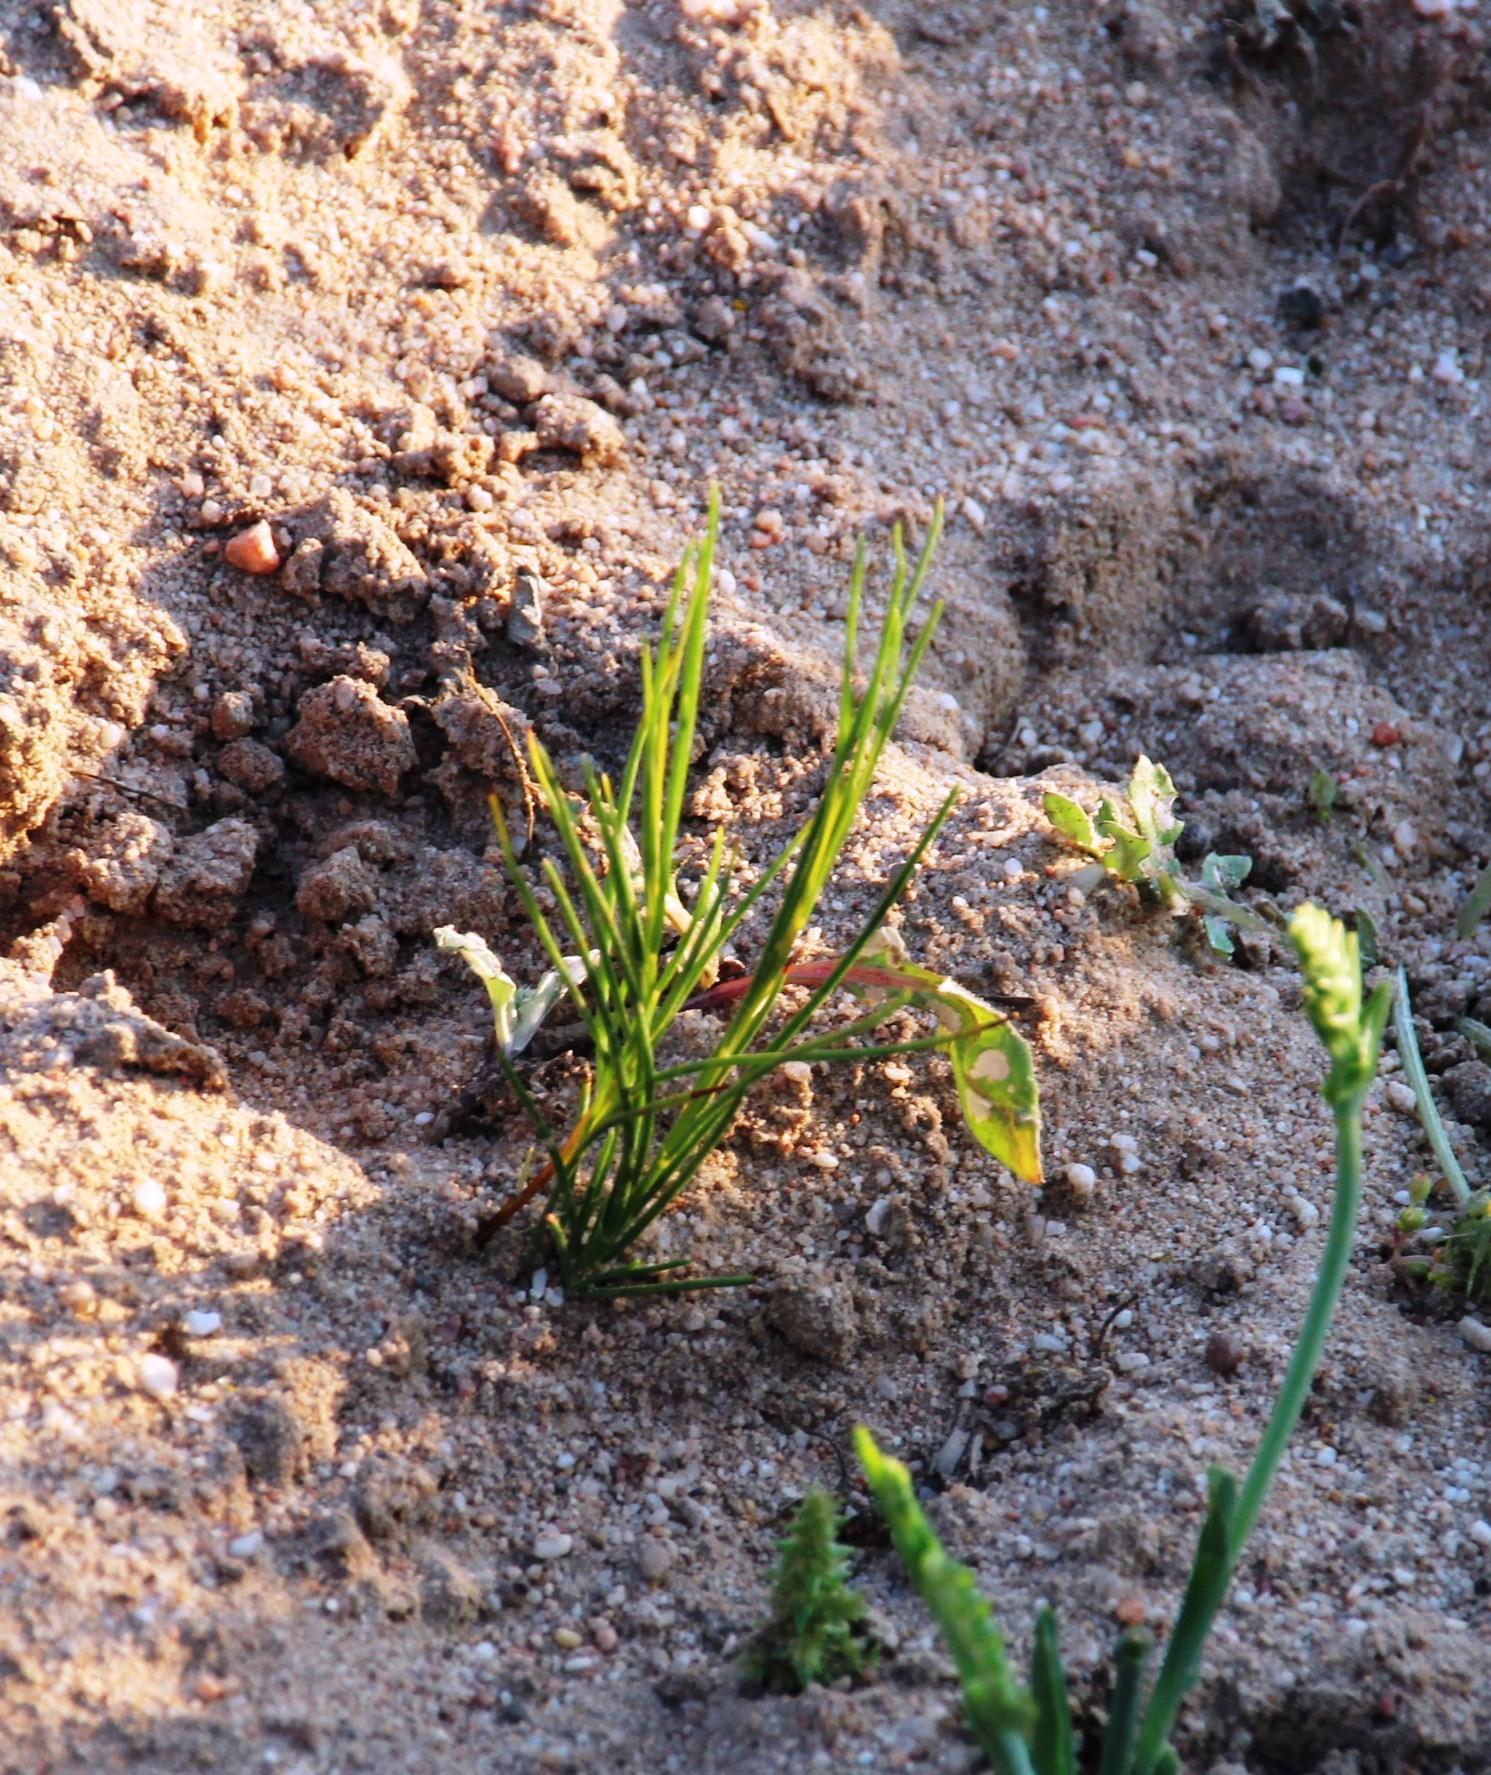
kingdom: Plantae
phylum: Tracheophyta
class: Magnoliopsida
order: Fabales
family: Fabaceae
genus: Aspalathus
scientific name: Aspalathus linearis
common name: Rooibos-tea
